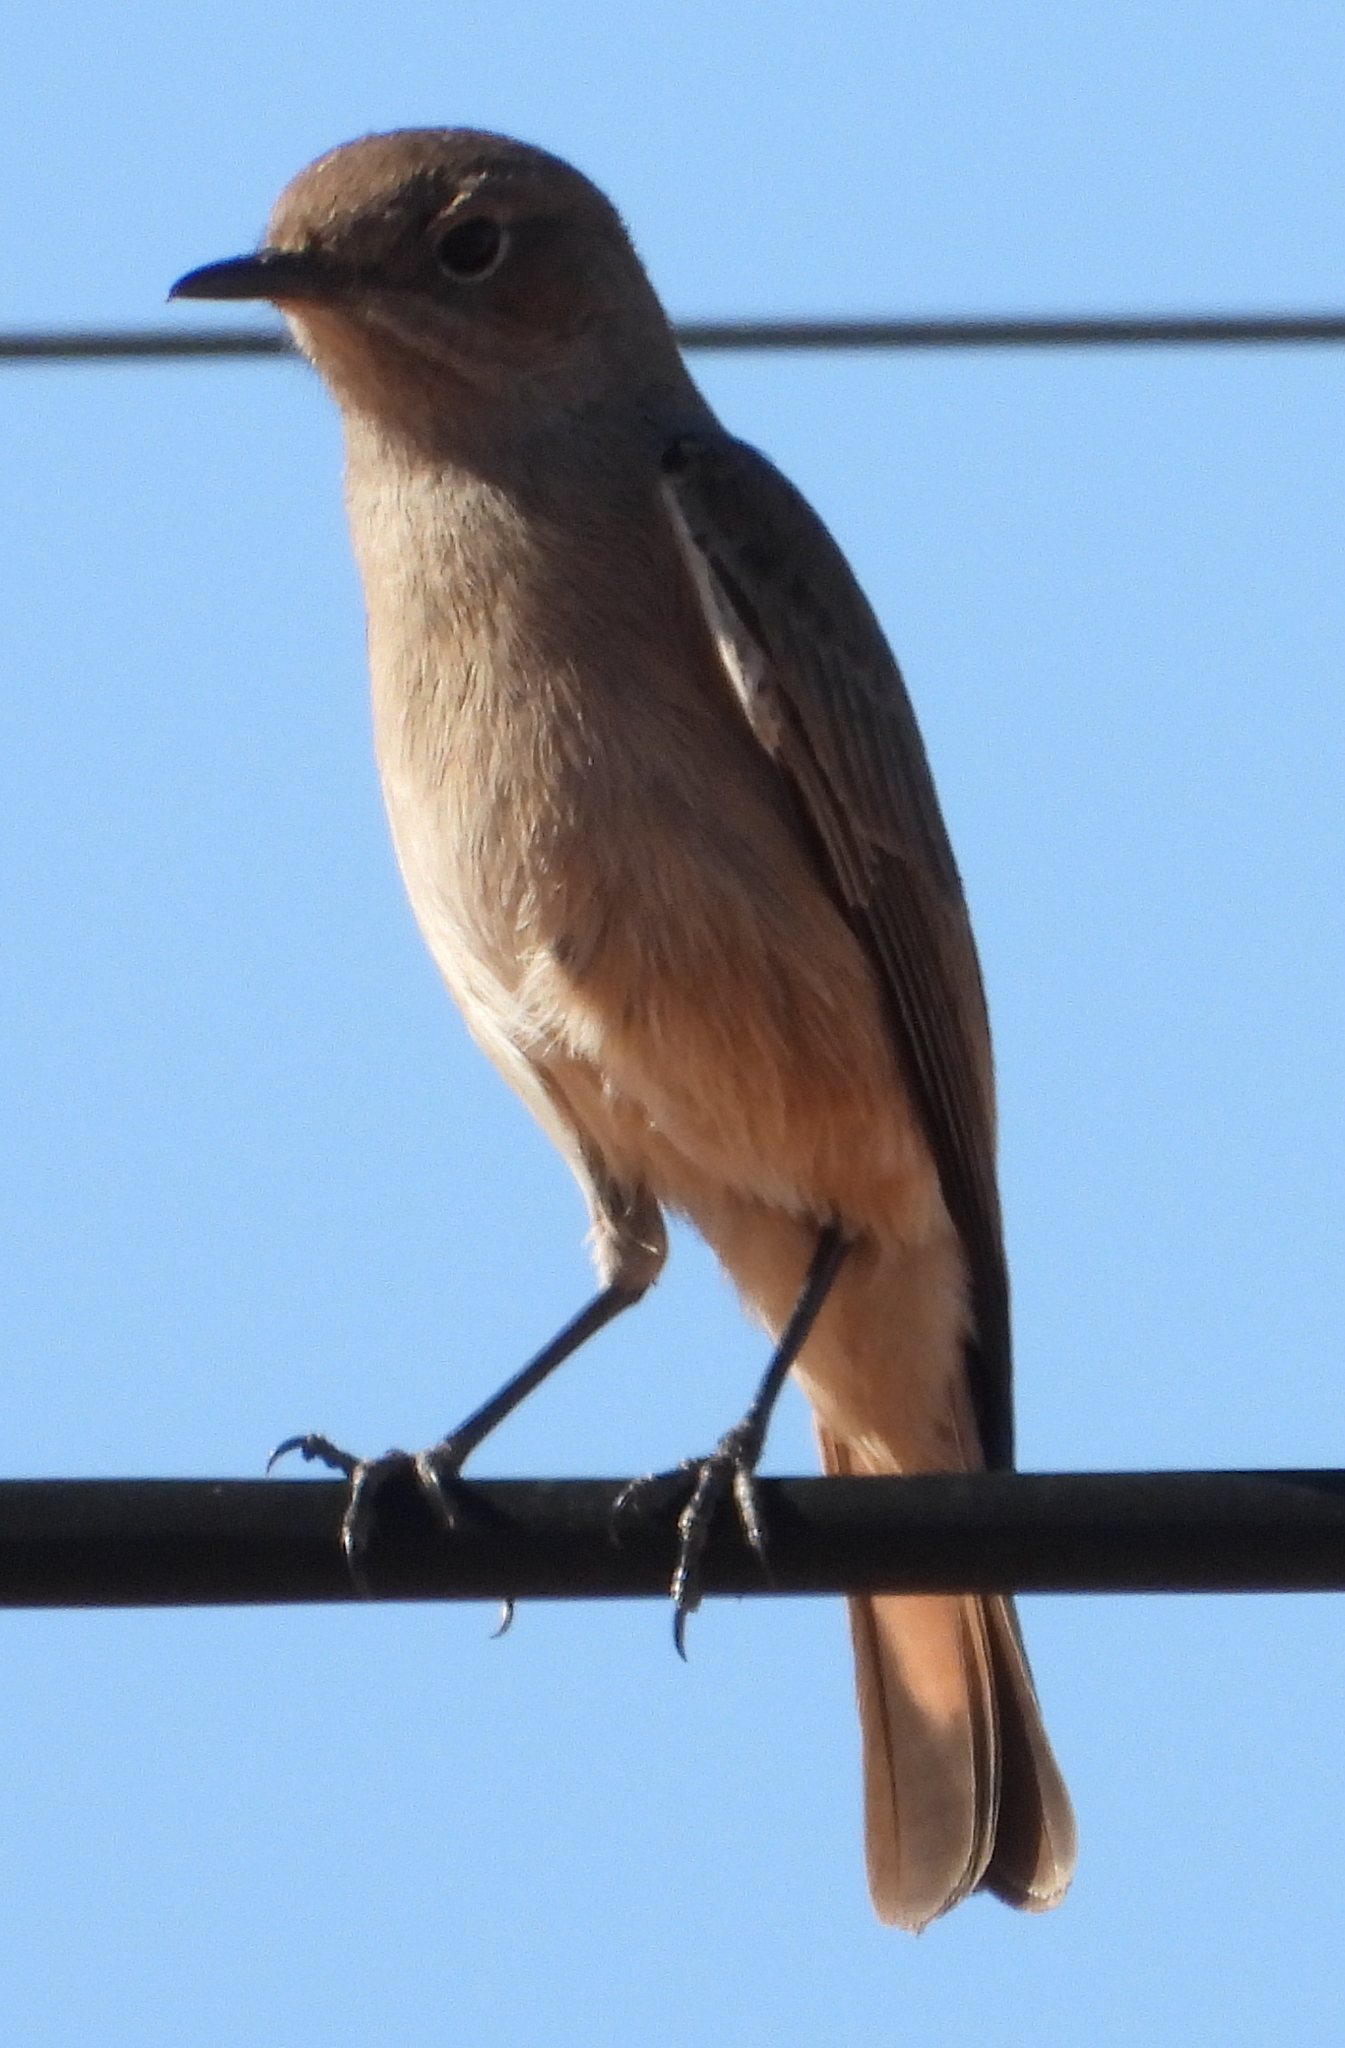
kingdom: Animalia
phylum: Chordata
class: Aves
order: Passeriformes
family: Muscicapidae
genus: Oenanthe
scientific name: Oenanthe familiaris
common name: Familiar chat
